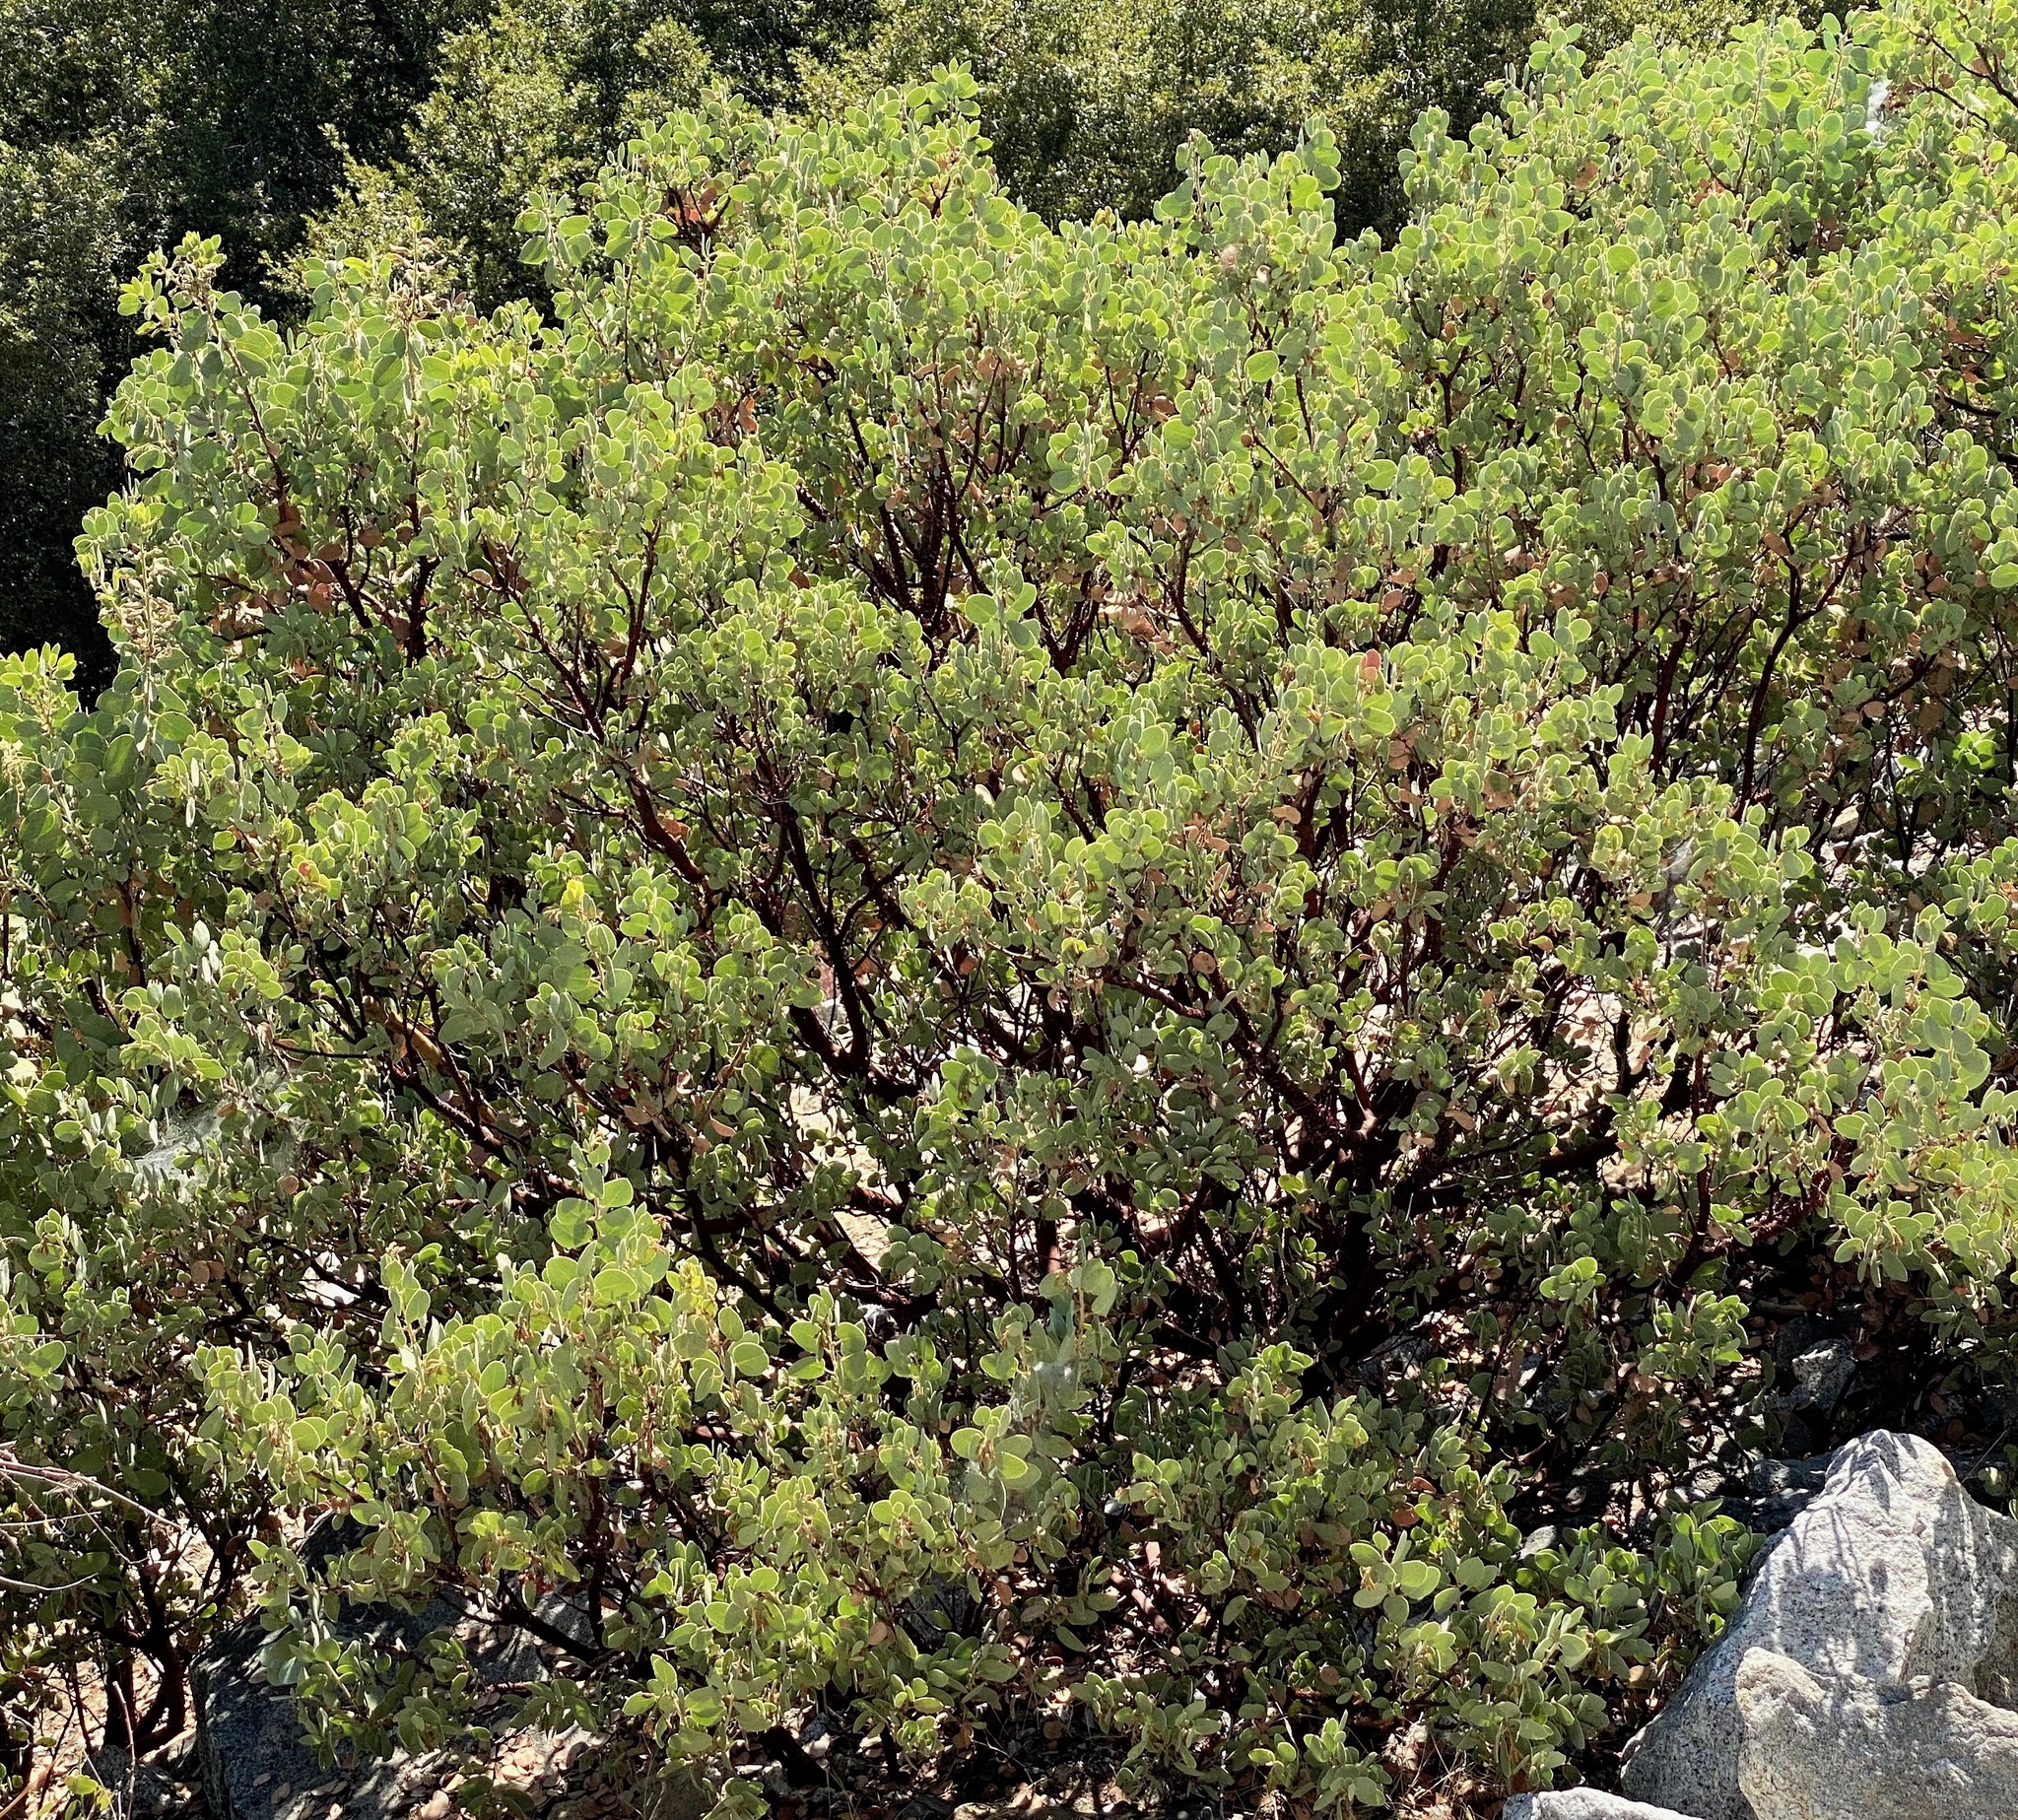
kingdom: Plantae
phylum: Tracheophyta
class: Magnoliopsida
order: Ericales
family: Ericaceae
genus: Arctostaphylos
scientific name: Arctostaphylos viscida
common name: White-leaf manzanita
